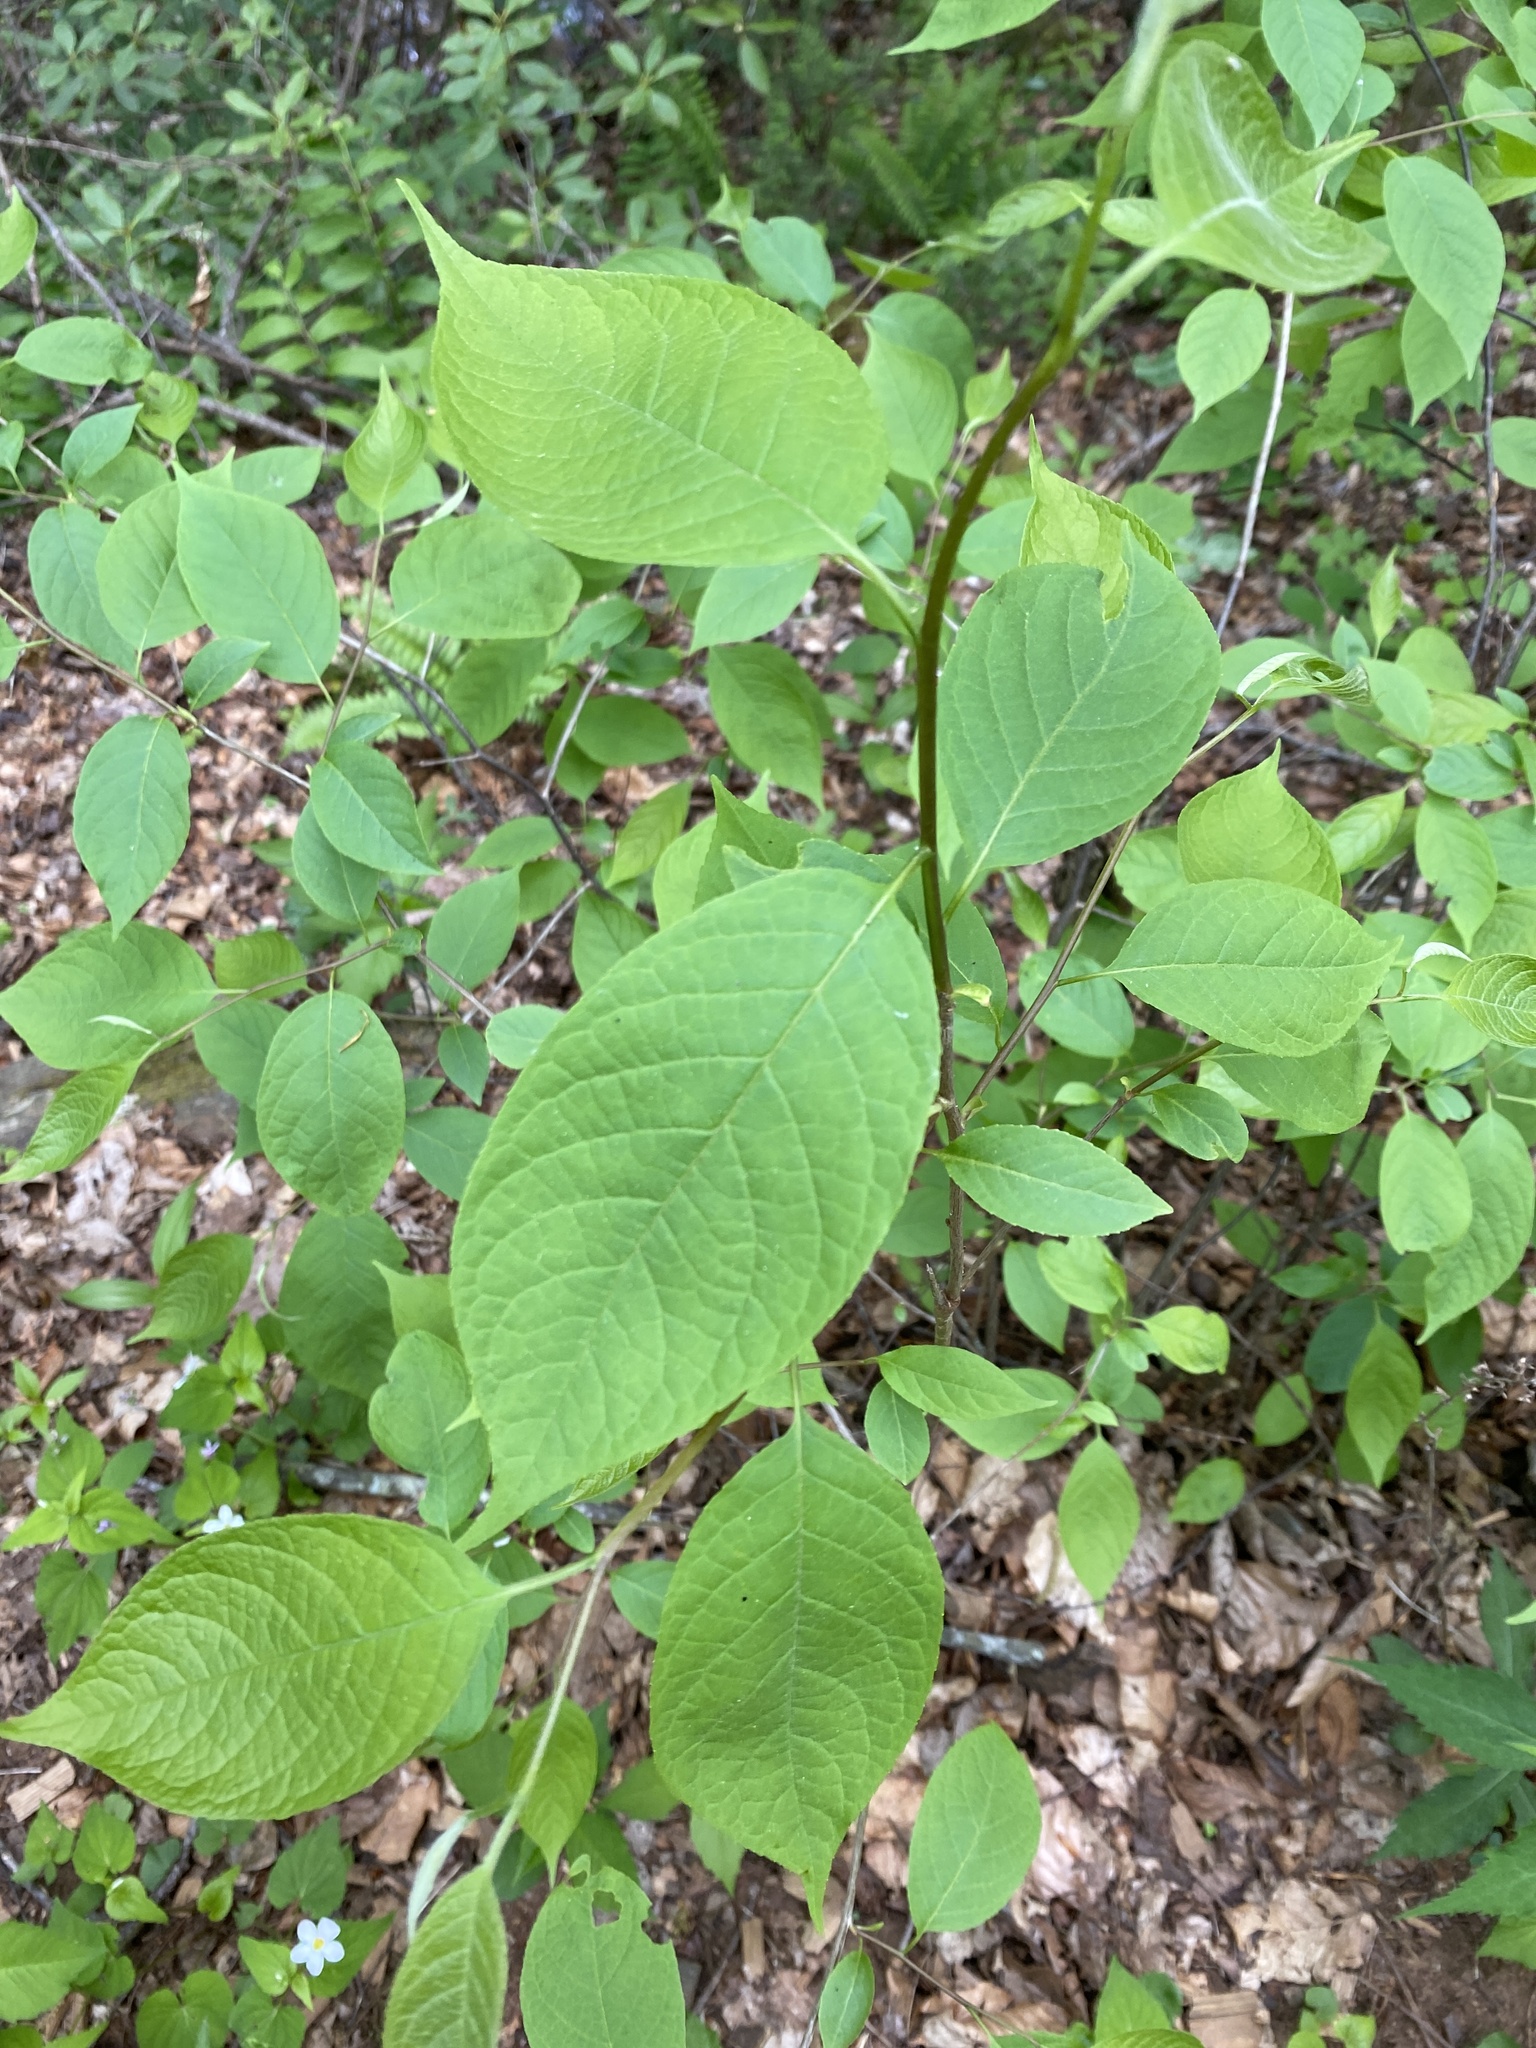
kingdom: Plantae
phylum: Tracheophyta
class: Magnoliopsida
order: Ericales
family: Styracaceae
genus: Halesia
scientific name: Halesia tetraptera
